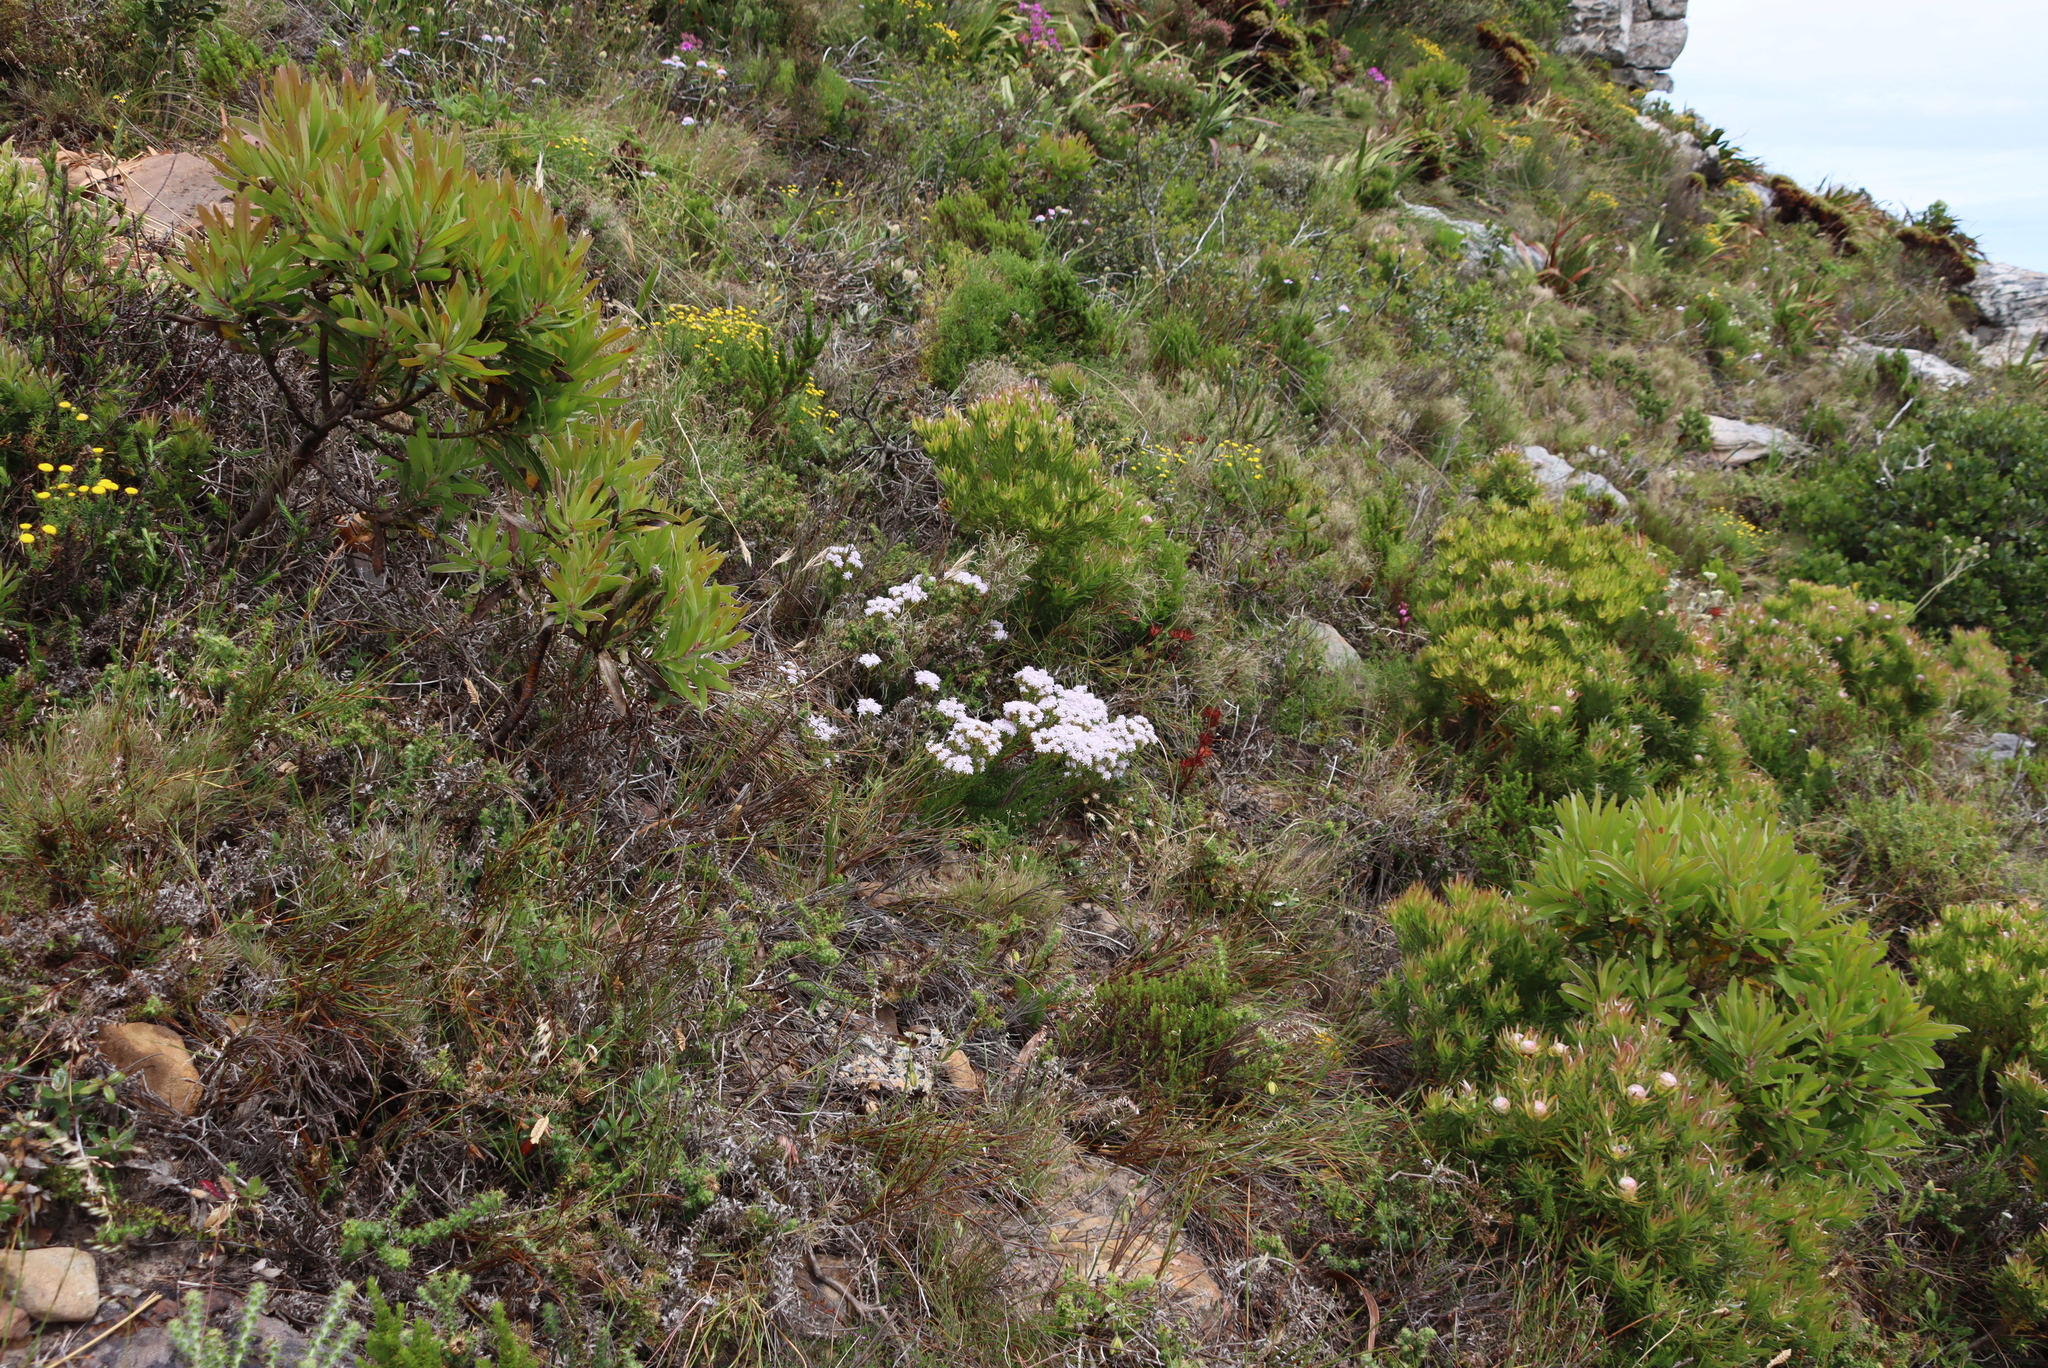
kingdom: Plantae
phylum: Tracheophyta
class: Magnoliopsida
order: Lamiales
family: Scrophulariaceae
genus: Pseudoselago
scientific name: Pseudoselago spuria
